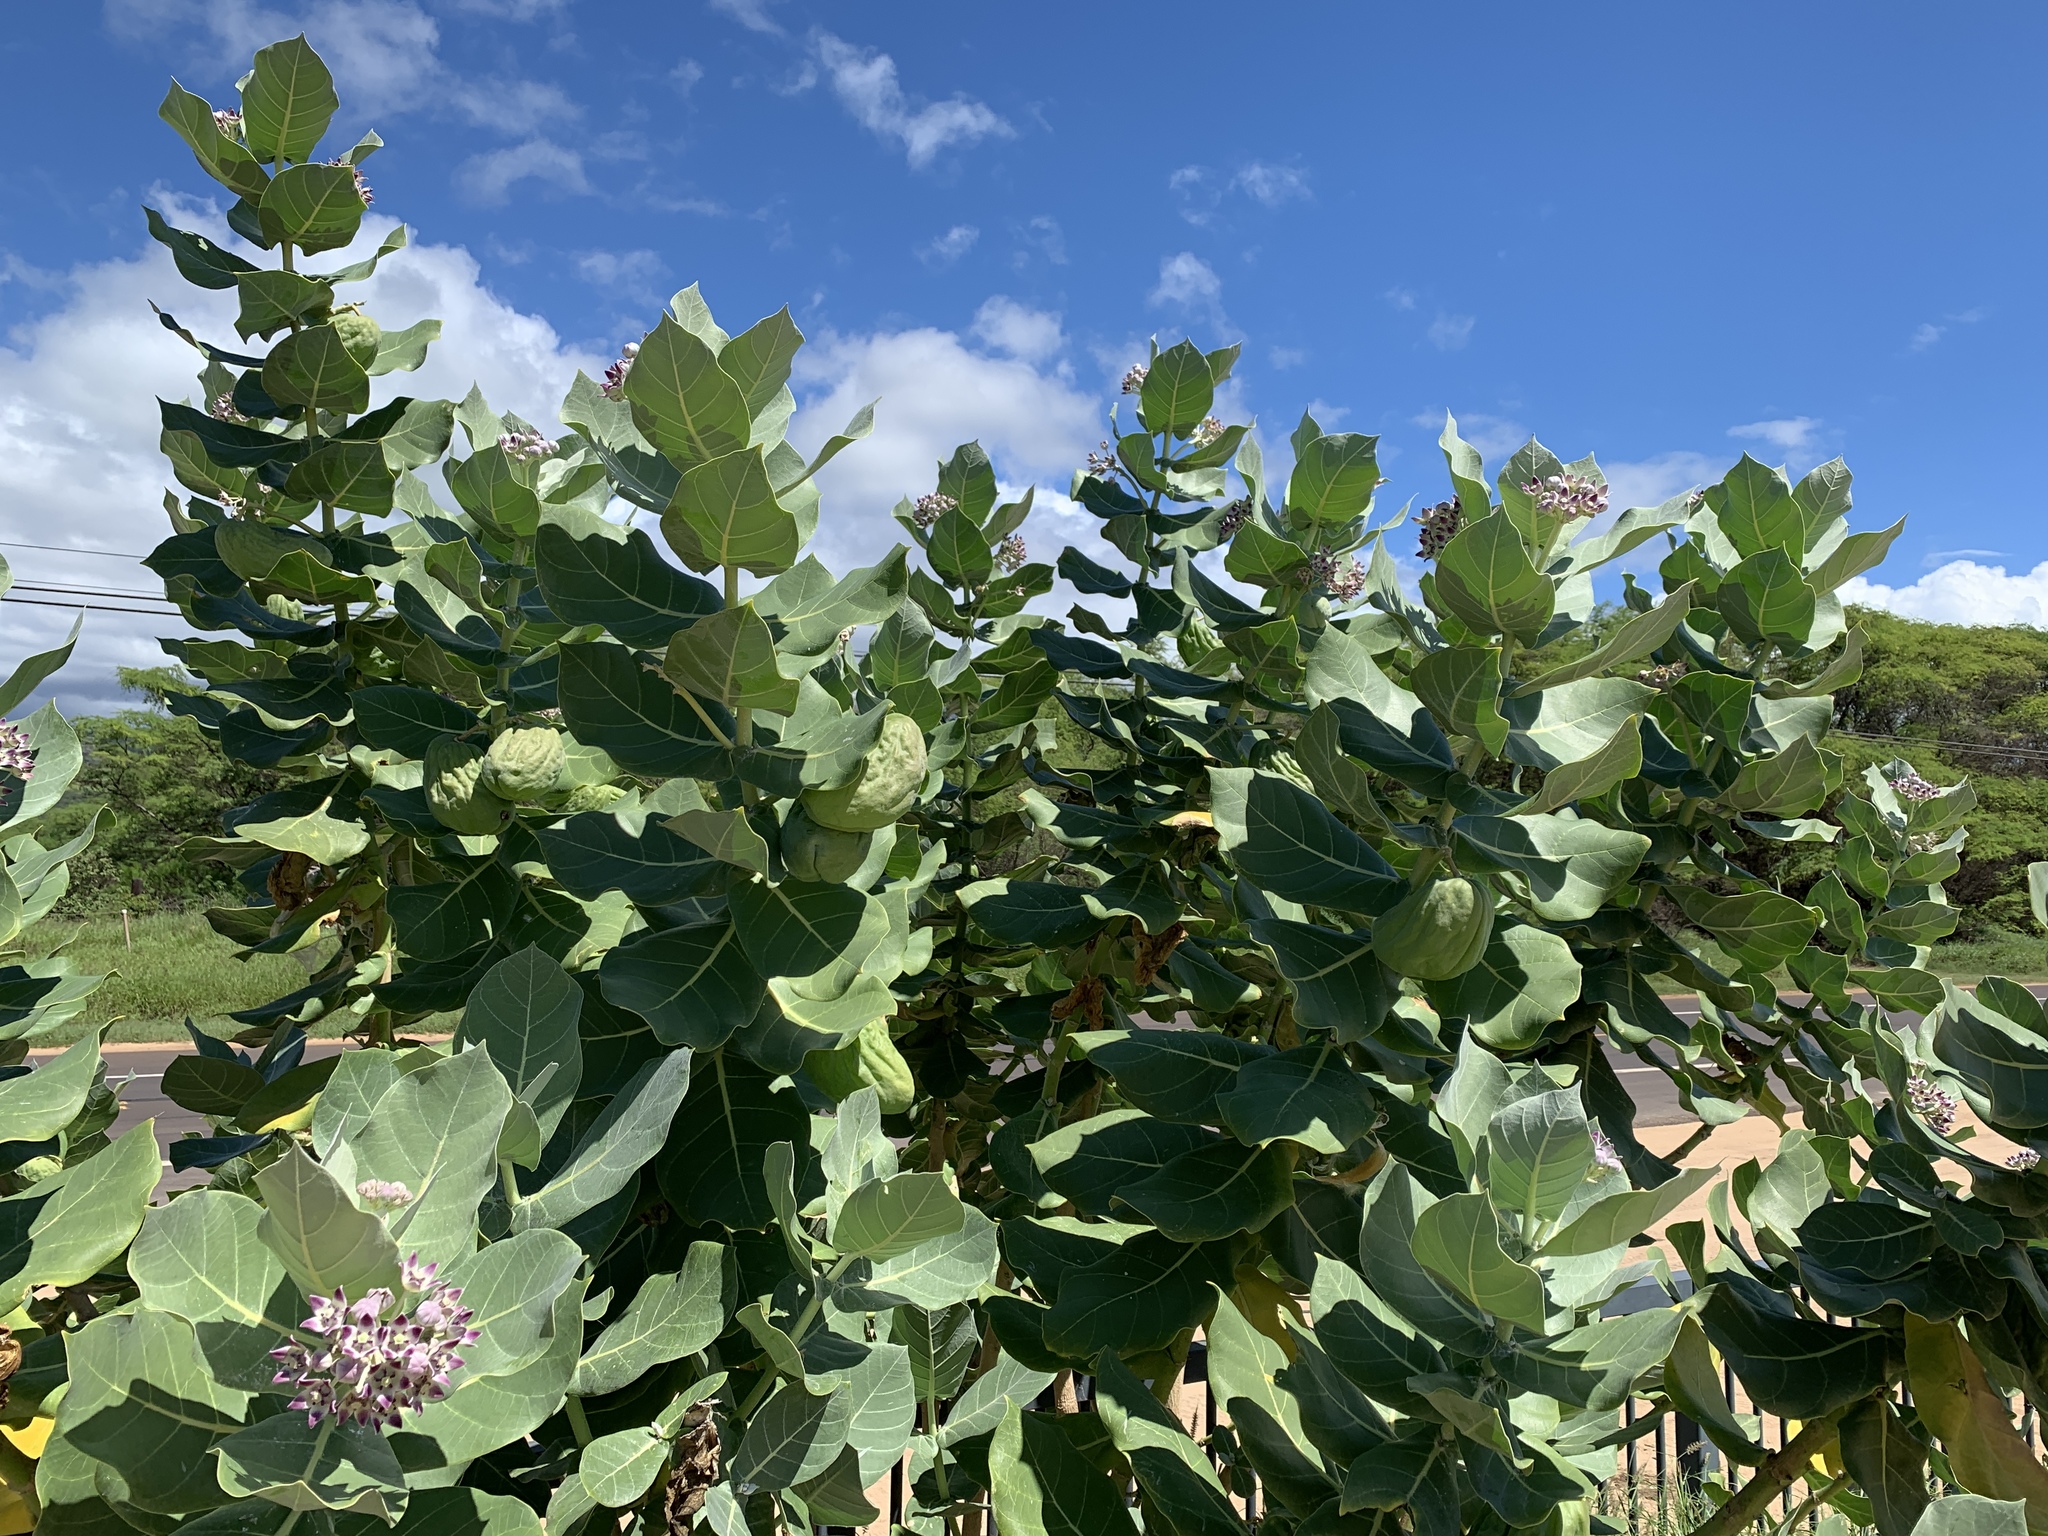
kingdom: Plantae
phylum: Tracheophyta
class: Magnoliopsida
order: Gentianales
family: Apocynaceae
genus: Calotropis
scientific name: Calotropis procera
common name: Roostertree
